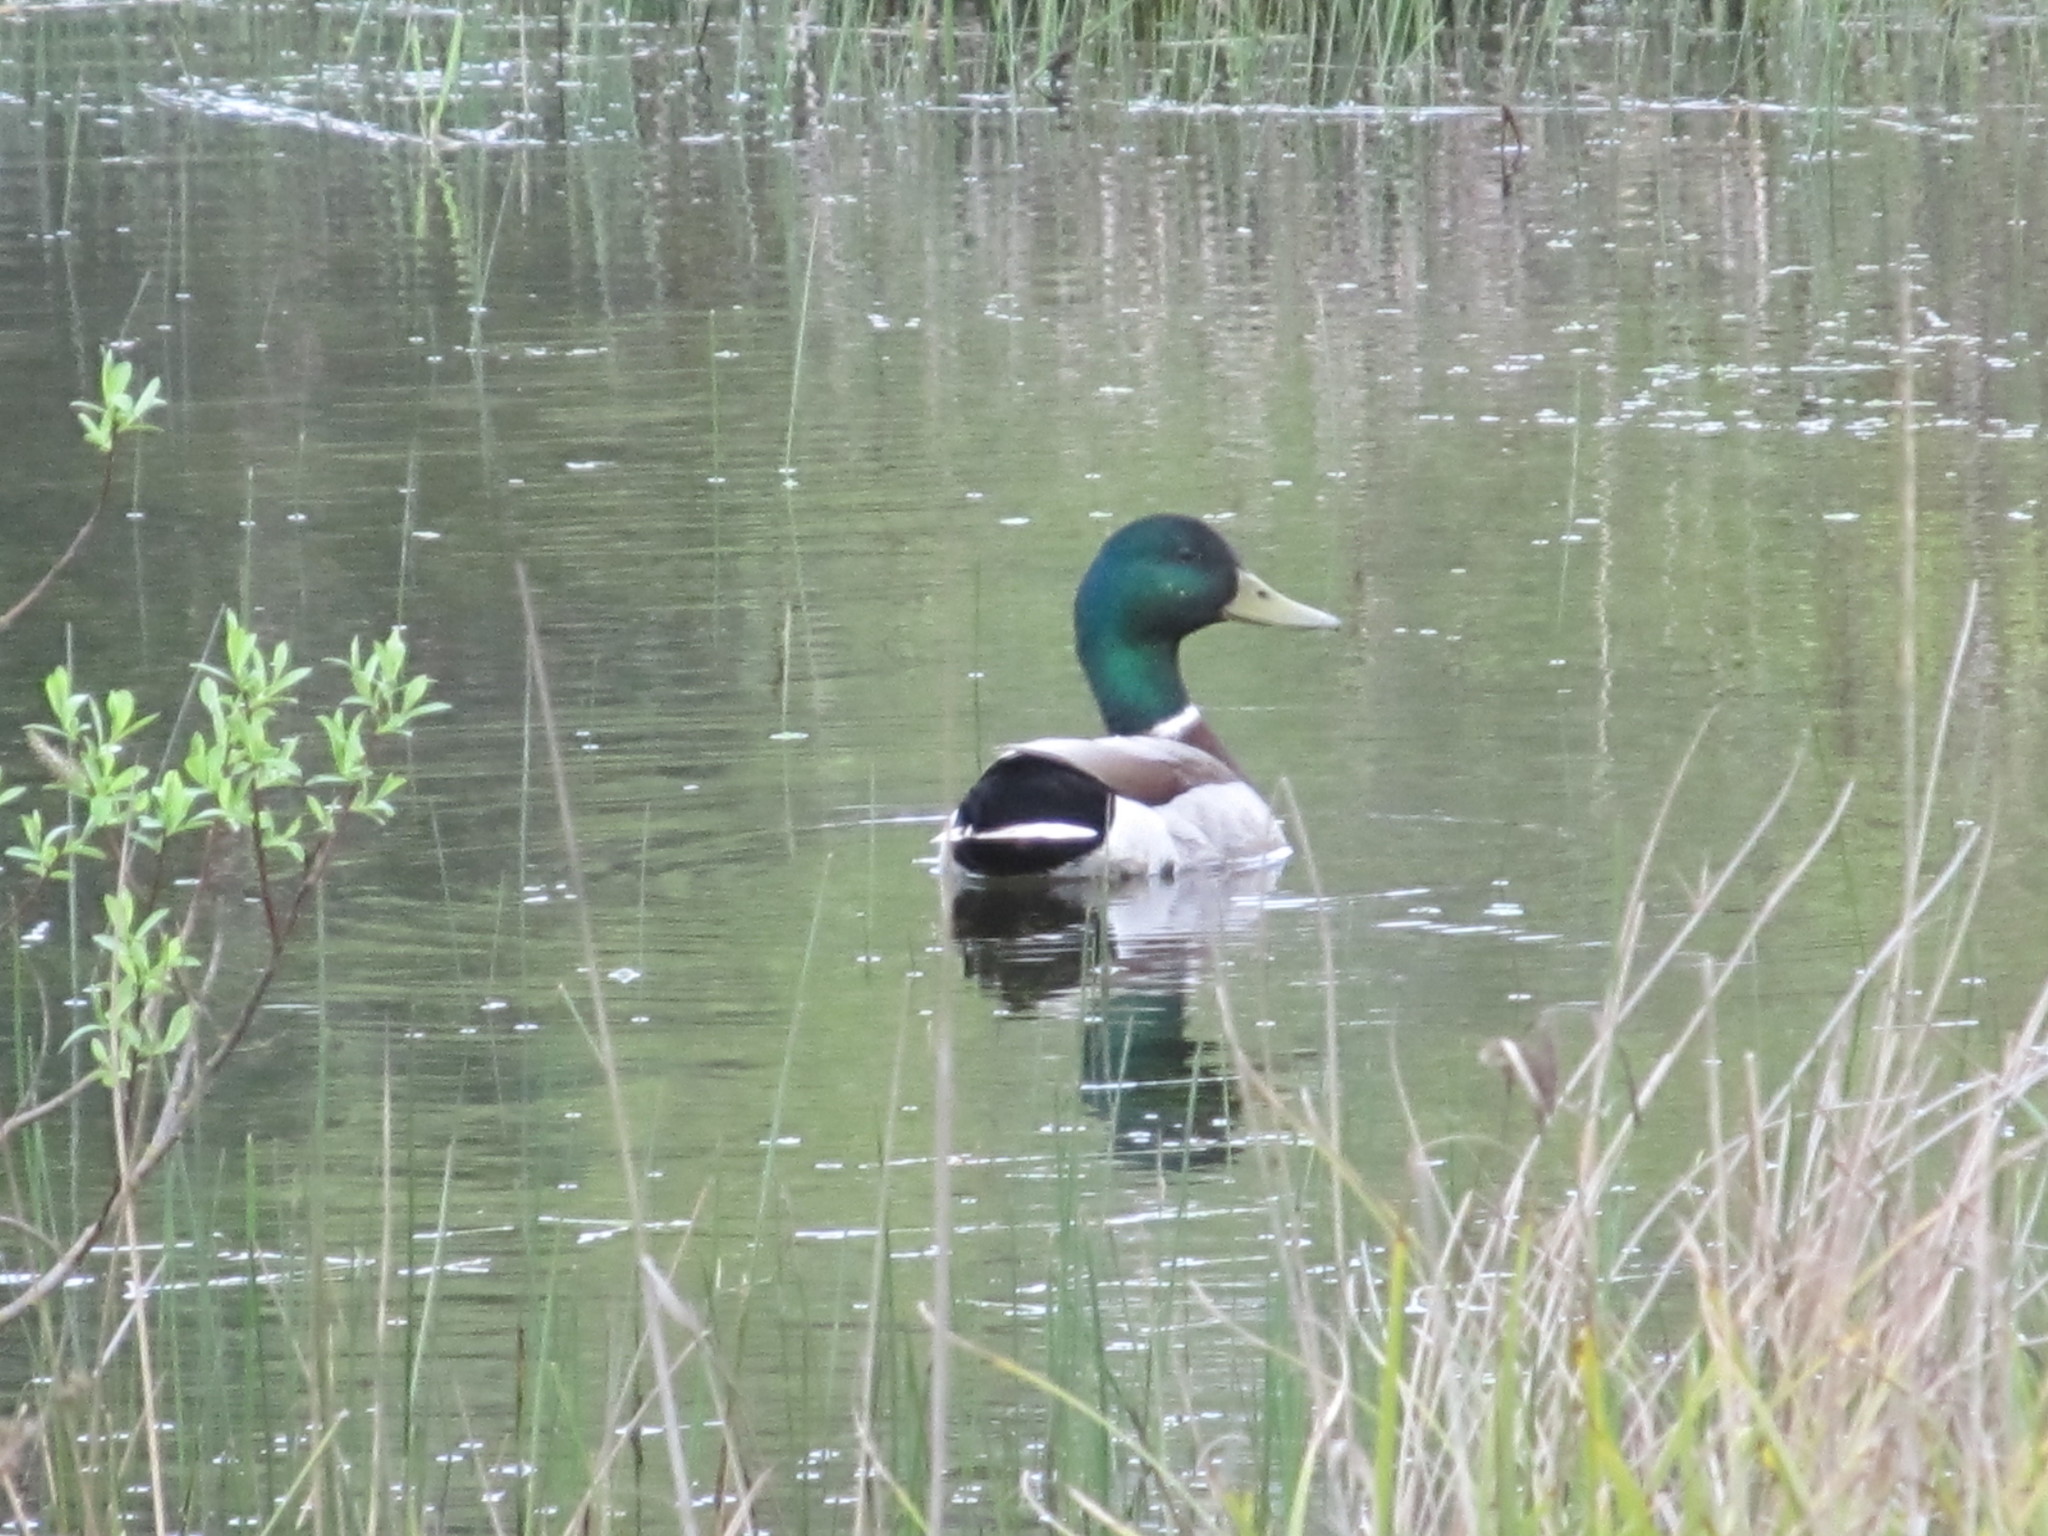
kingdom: Animalia
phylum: Chordata
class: Aves
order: Anseriformes
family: Anatidae
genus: Anas
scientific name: Anas platyrhynchos
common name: Mallard
